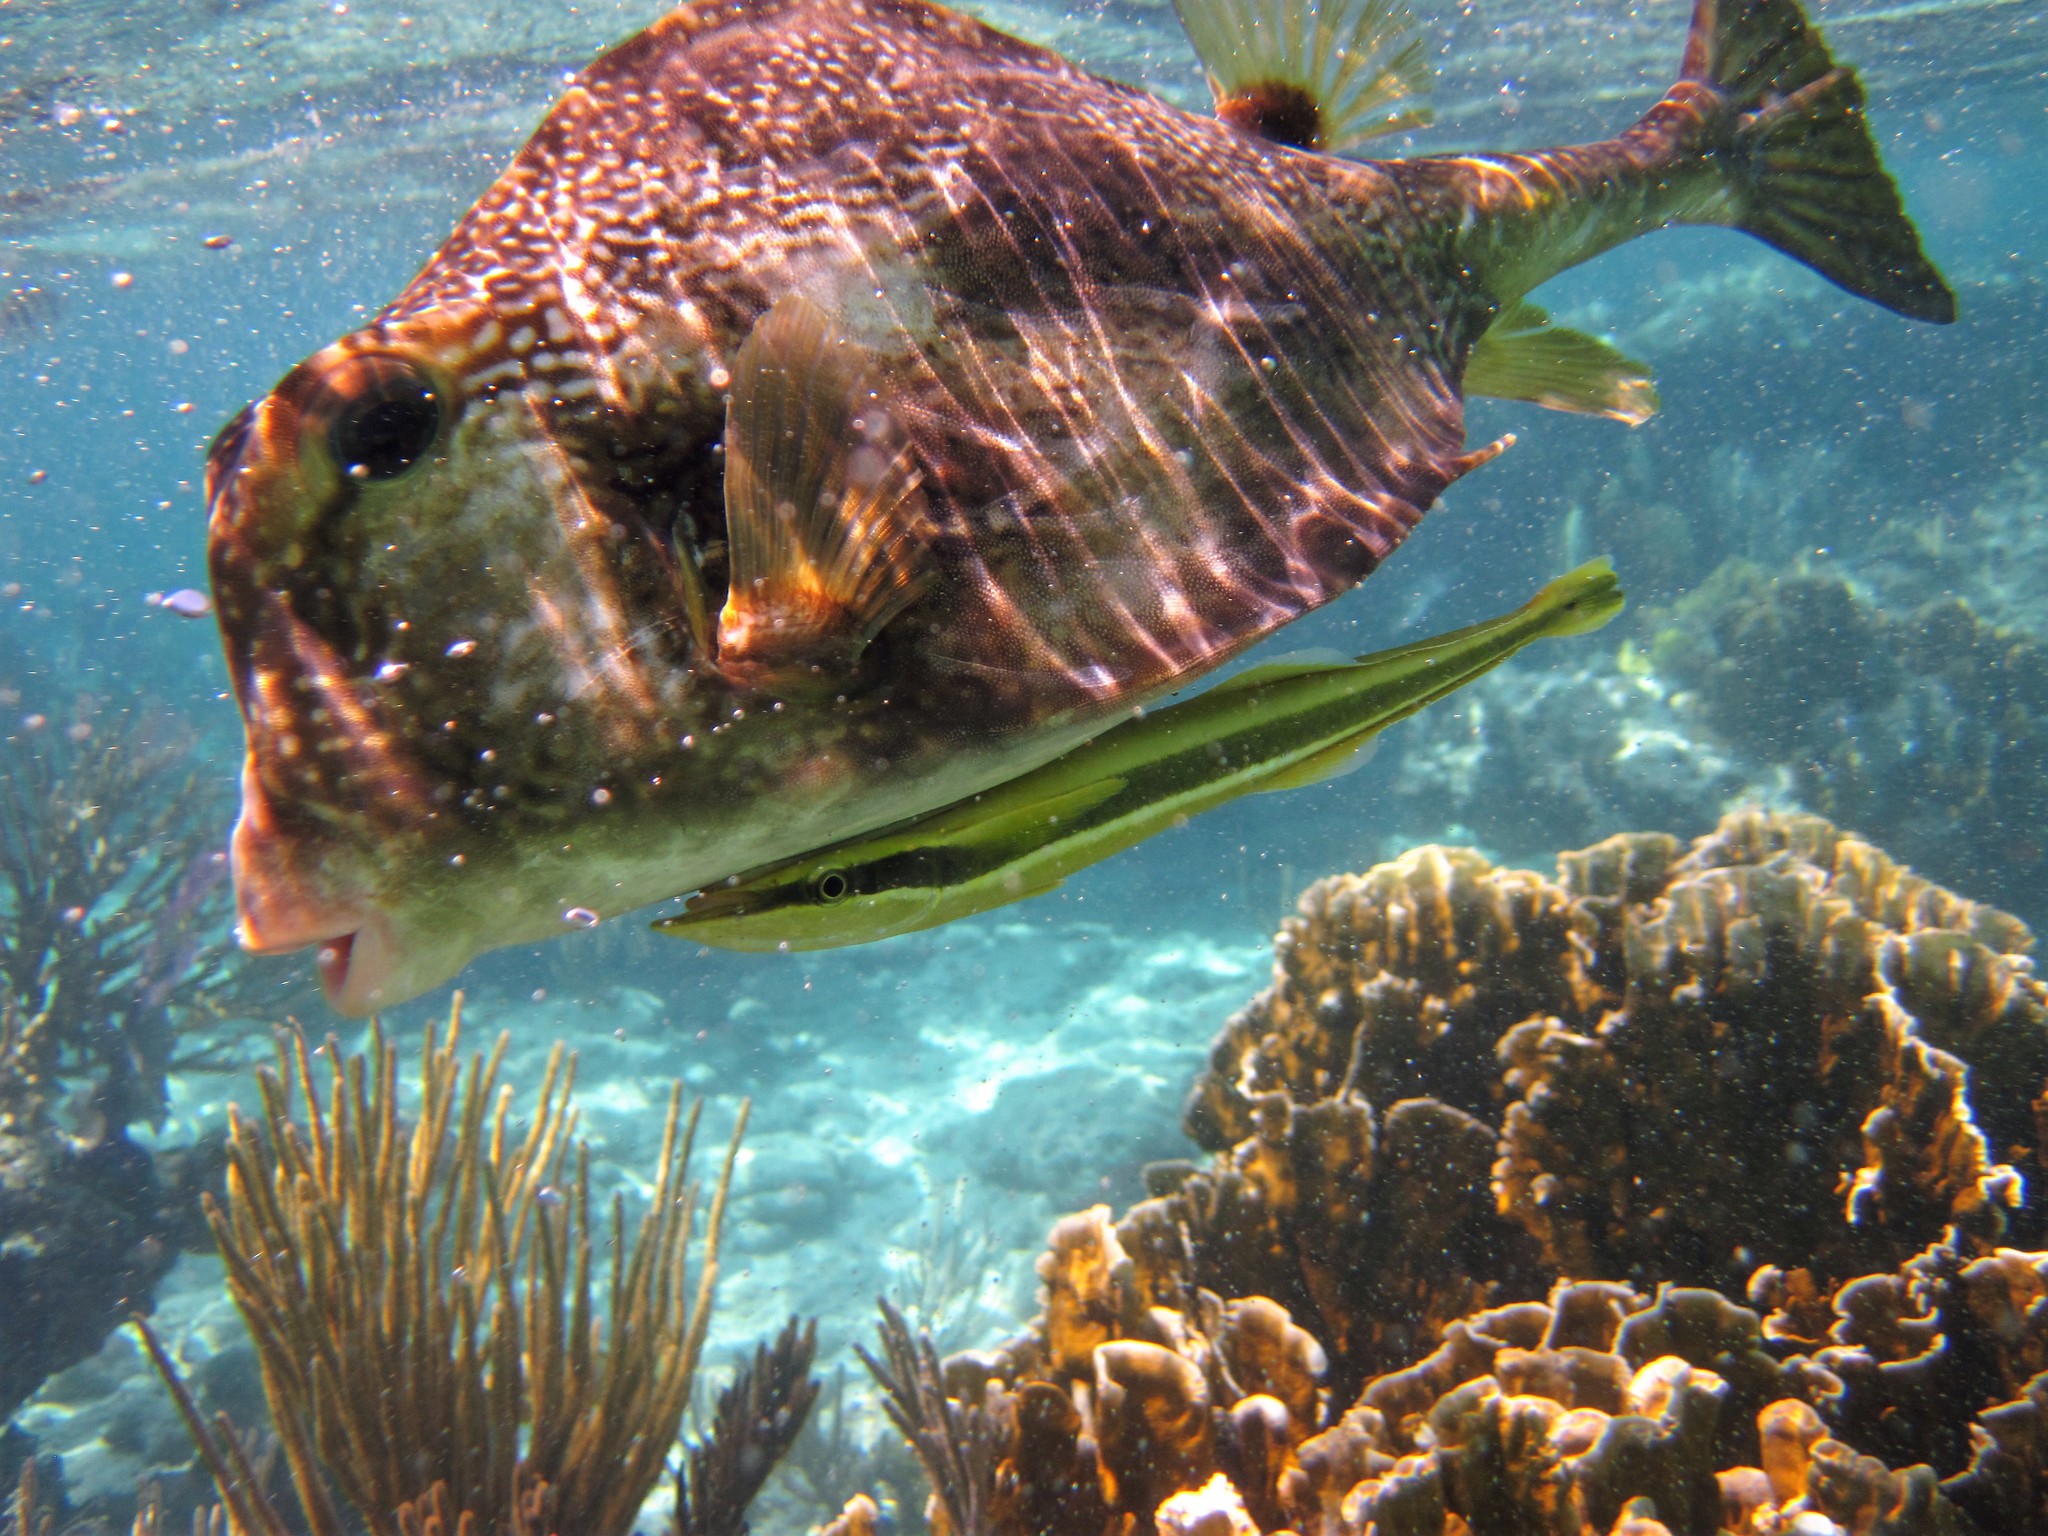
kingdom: Animalia
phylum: Chordata
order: Tetraodontiformes
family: Ostraciidae
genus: Lactophrys
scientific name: Lactophrys trigonus
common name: Buffalo trunkfish
